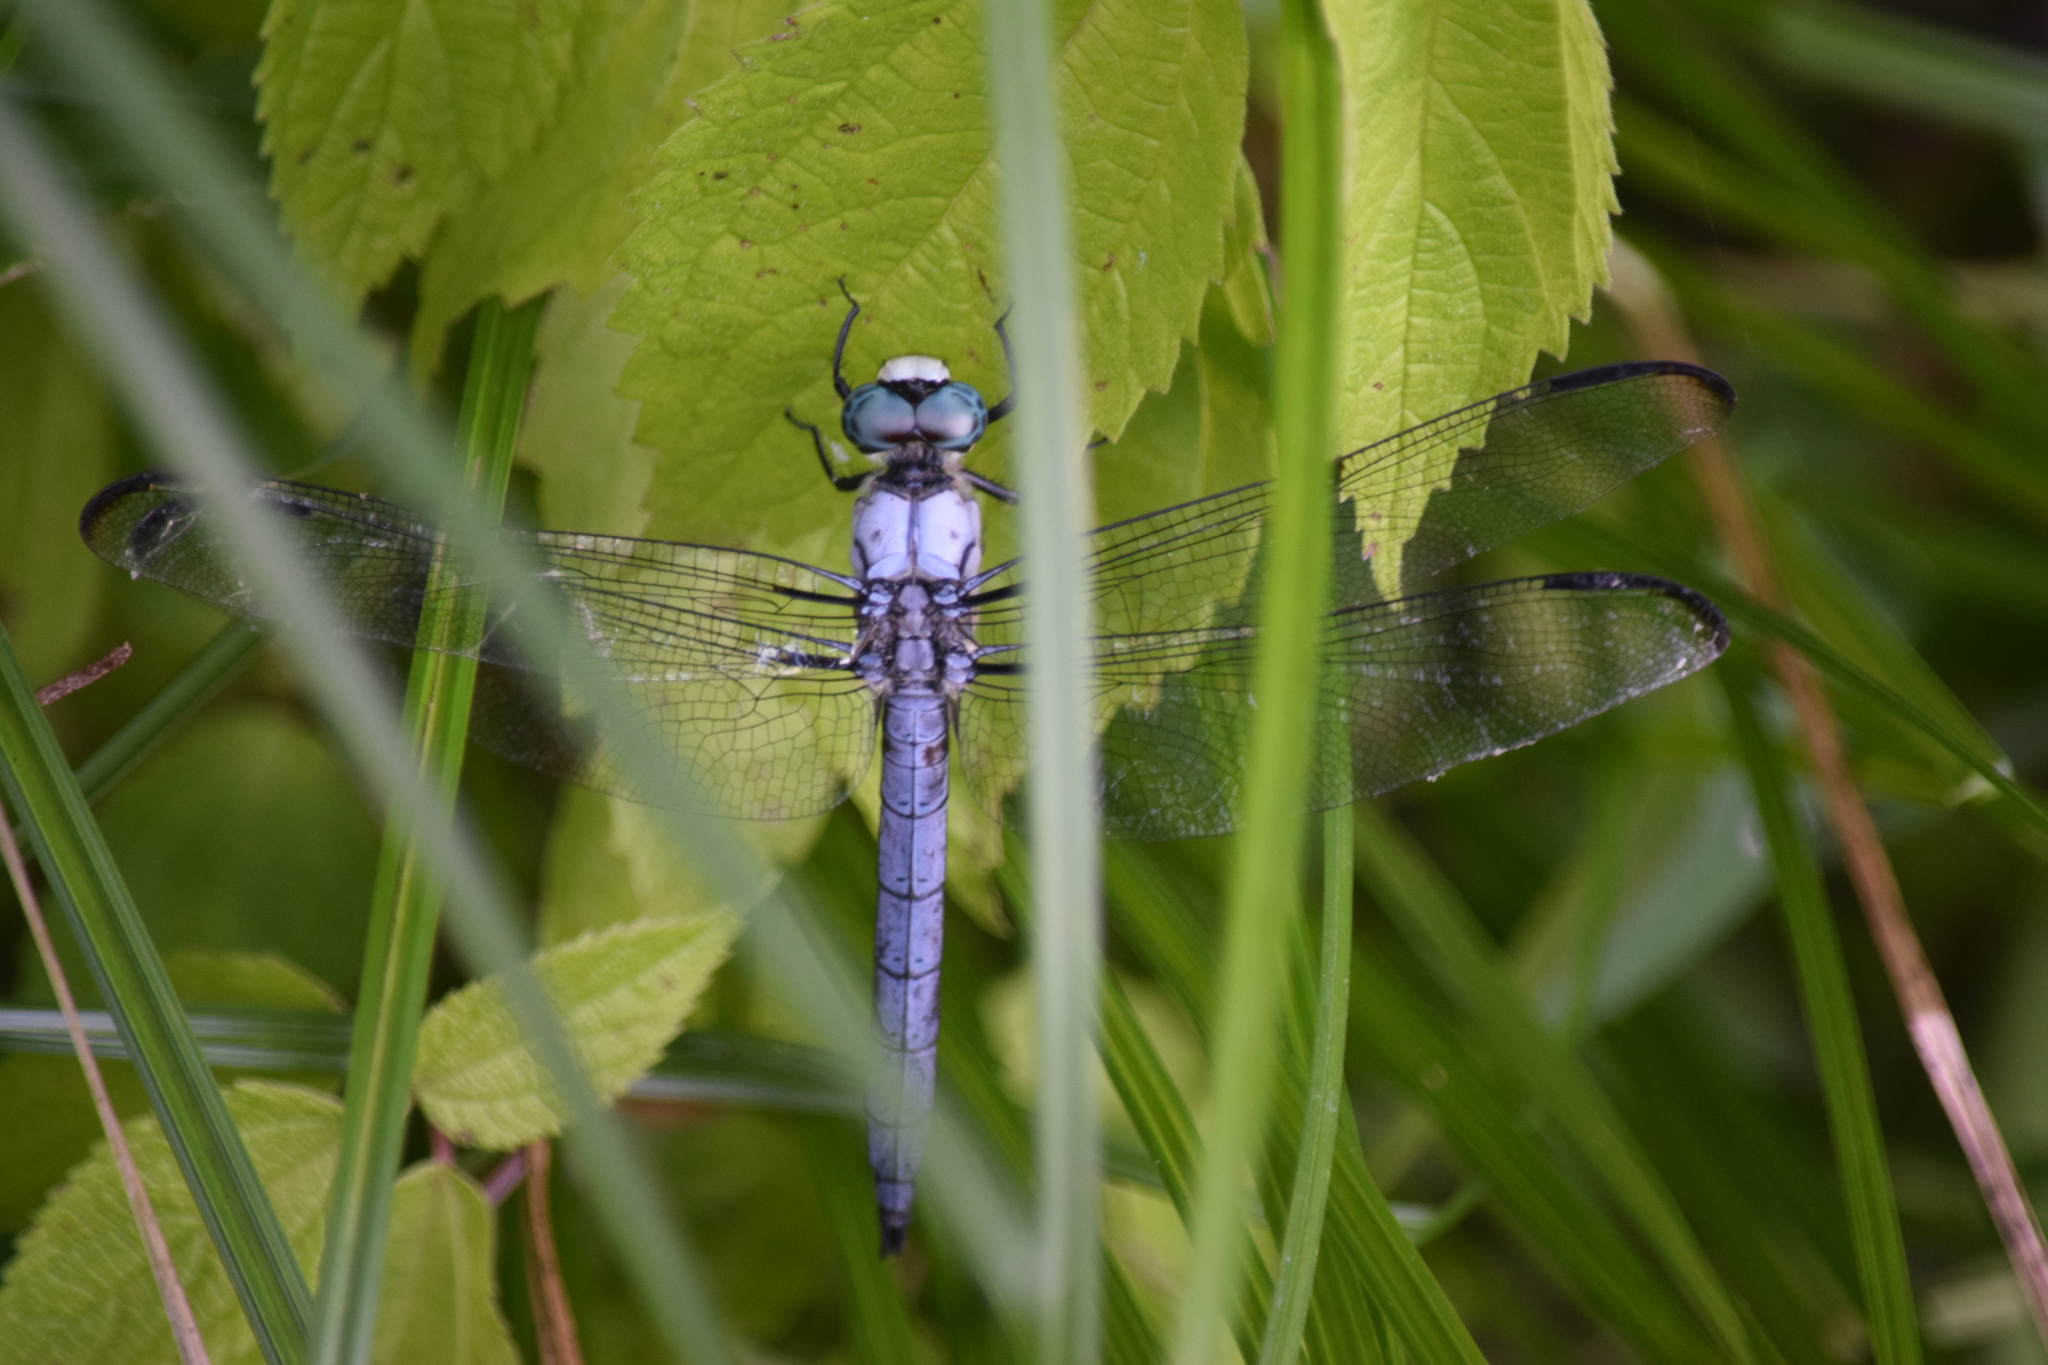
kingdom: Animalia
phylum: Arthropoda
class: Insecta
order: Odonata
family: Libellulidae
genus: Libellula
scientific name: Libellula vibrans
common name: Great blue skimmer
